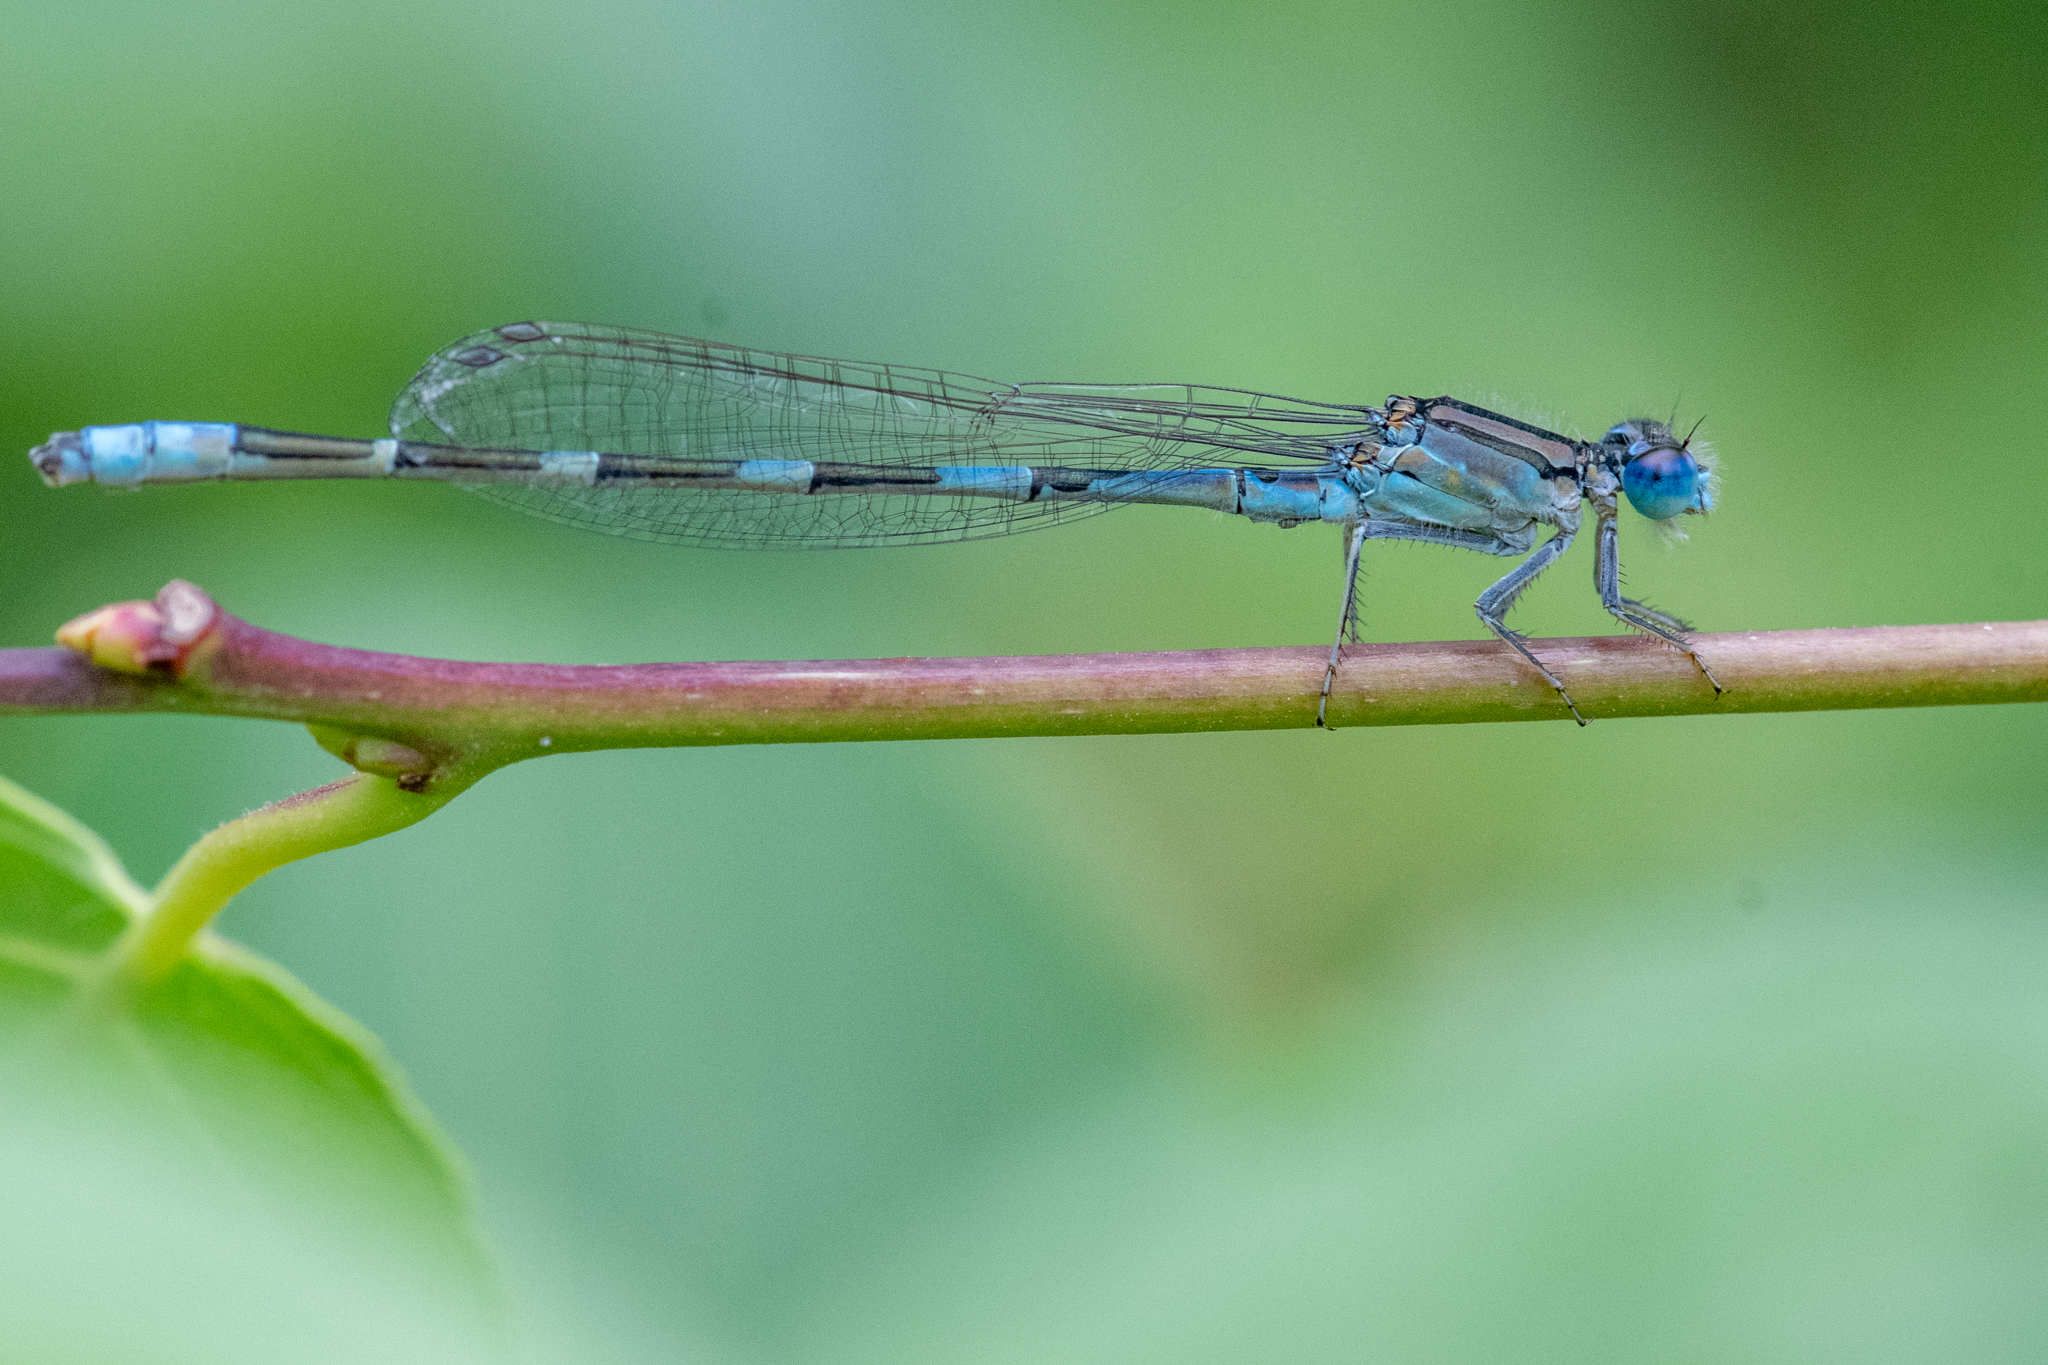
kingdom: Animalia
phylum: Arthropoda
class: Insecta
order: Odonata
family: Coenagrionidae
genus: Enallagma
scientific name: Enallagma carunculatum
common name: Tule bluet
